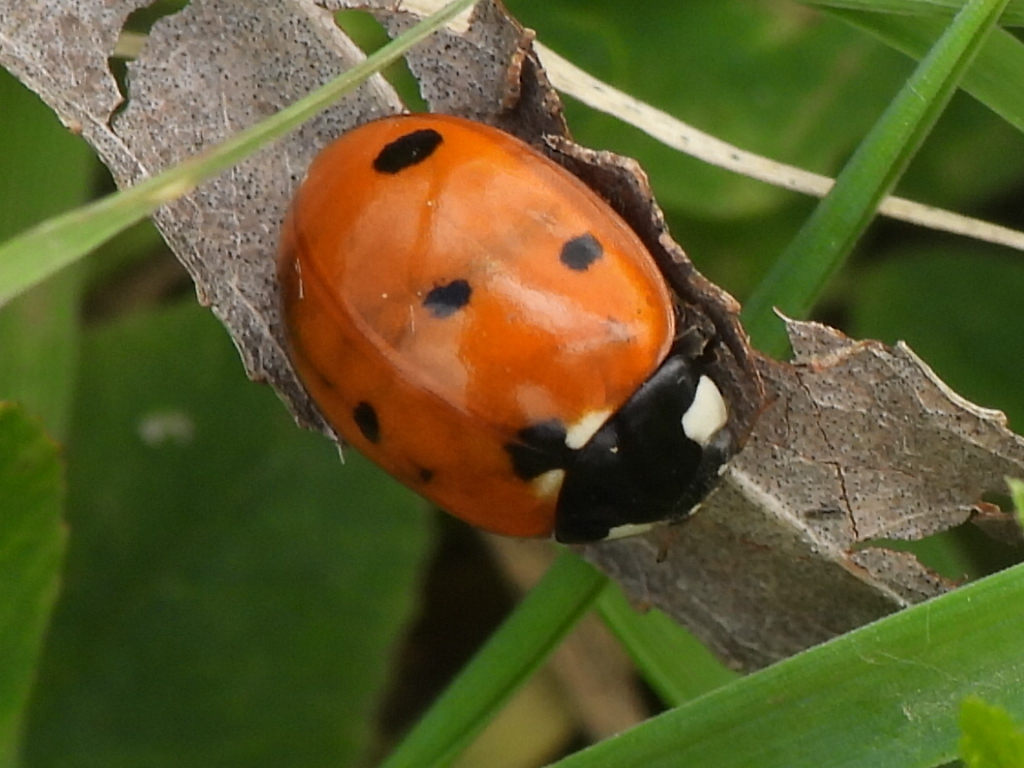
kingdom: Animalia
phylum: Arthropoda
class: Insecta
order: Coleoptera
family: Coccinellidae
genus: Coccinella
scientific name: Coccinella septempunctata
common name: Sevenspotted lady beetle
